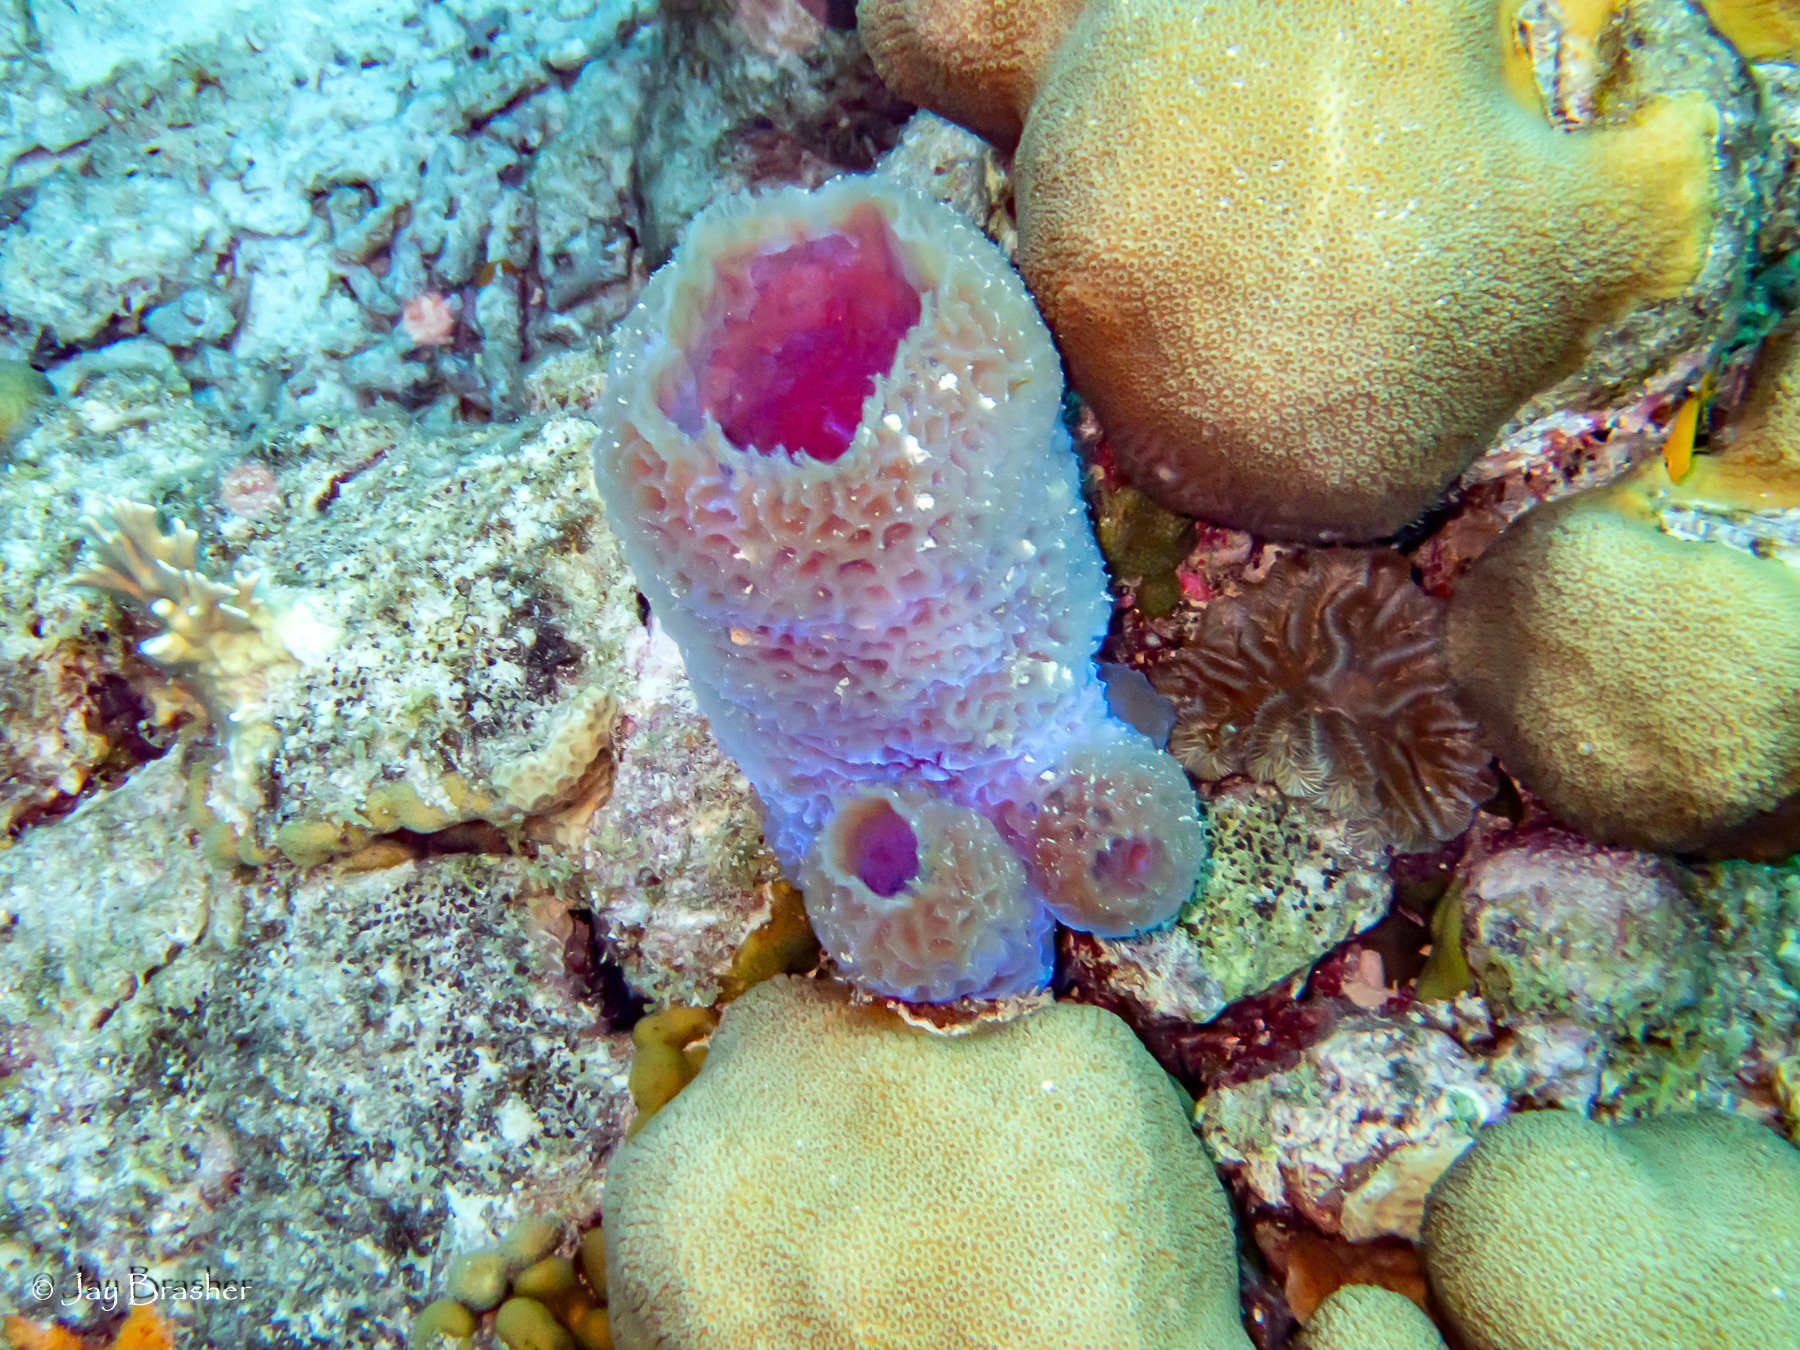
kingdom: Animalia
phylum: Porifera
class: Demospongiae
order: Haplosclerida
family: Callyspongiidae
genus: Callyspongia
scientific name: Callyspongia plicifera
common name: Azure vase sponge
